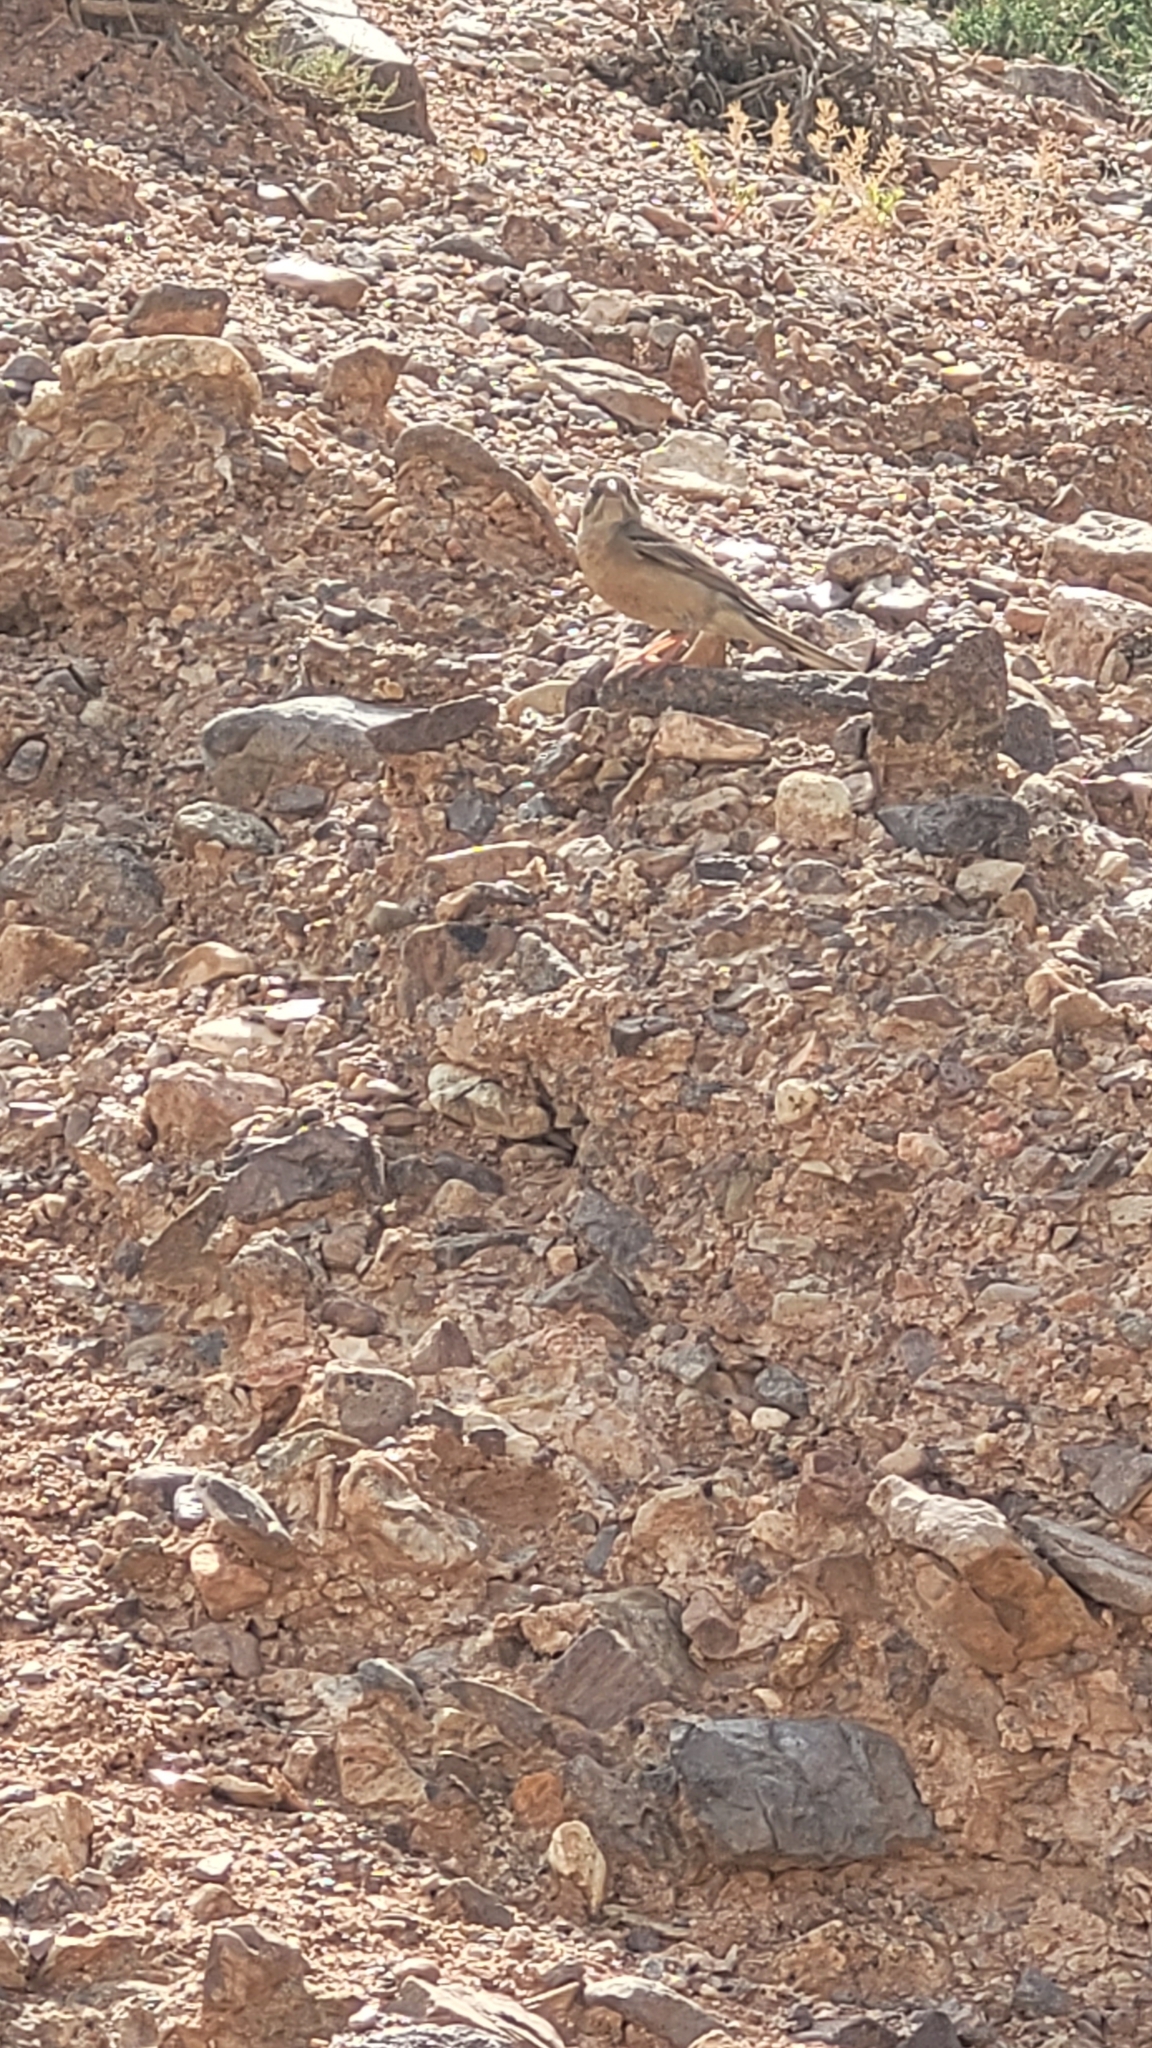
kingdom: Animalia
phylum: Chordata
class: Aves
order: Passeriformes
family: Emberizidae
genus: Emberiza
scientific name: Emberiza buchanani
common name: Grey-necked bunting
